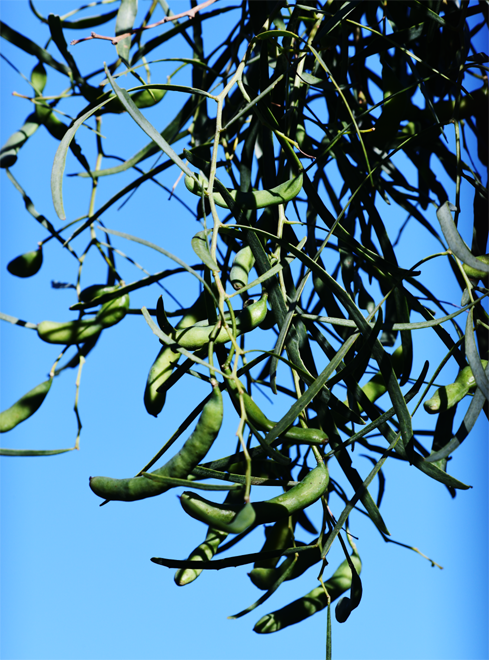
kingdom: Plantae
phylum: Tracheophyta
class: Magnoliopsida
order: Fabales
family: Fabaceae
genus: Acacia
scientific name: Acacia salicina
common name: Broughton willow wattle
